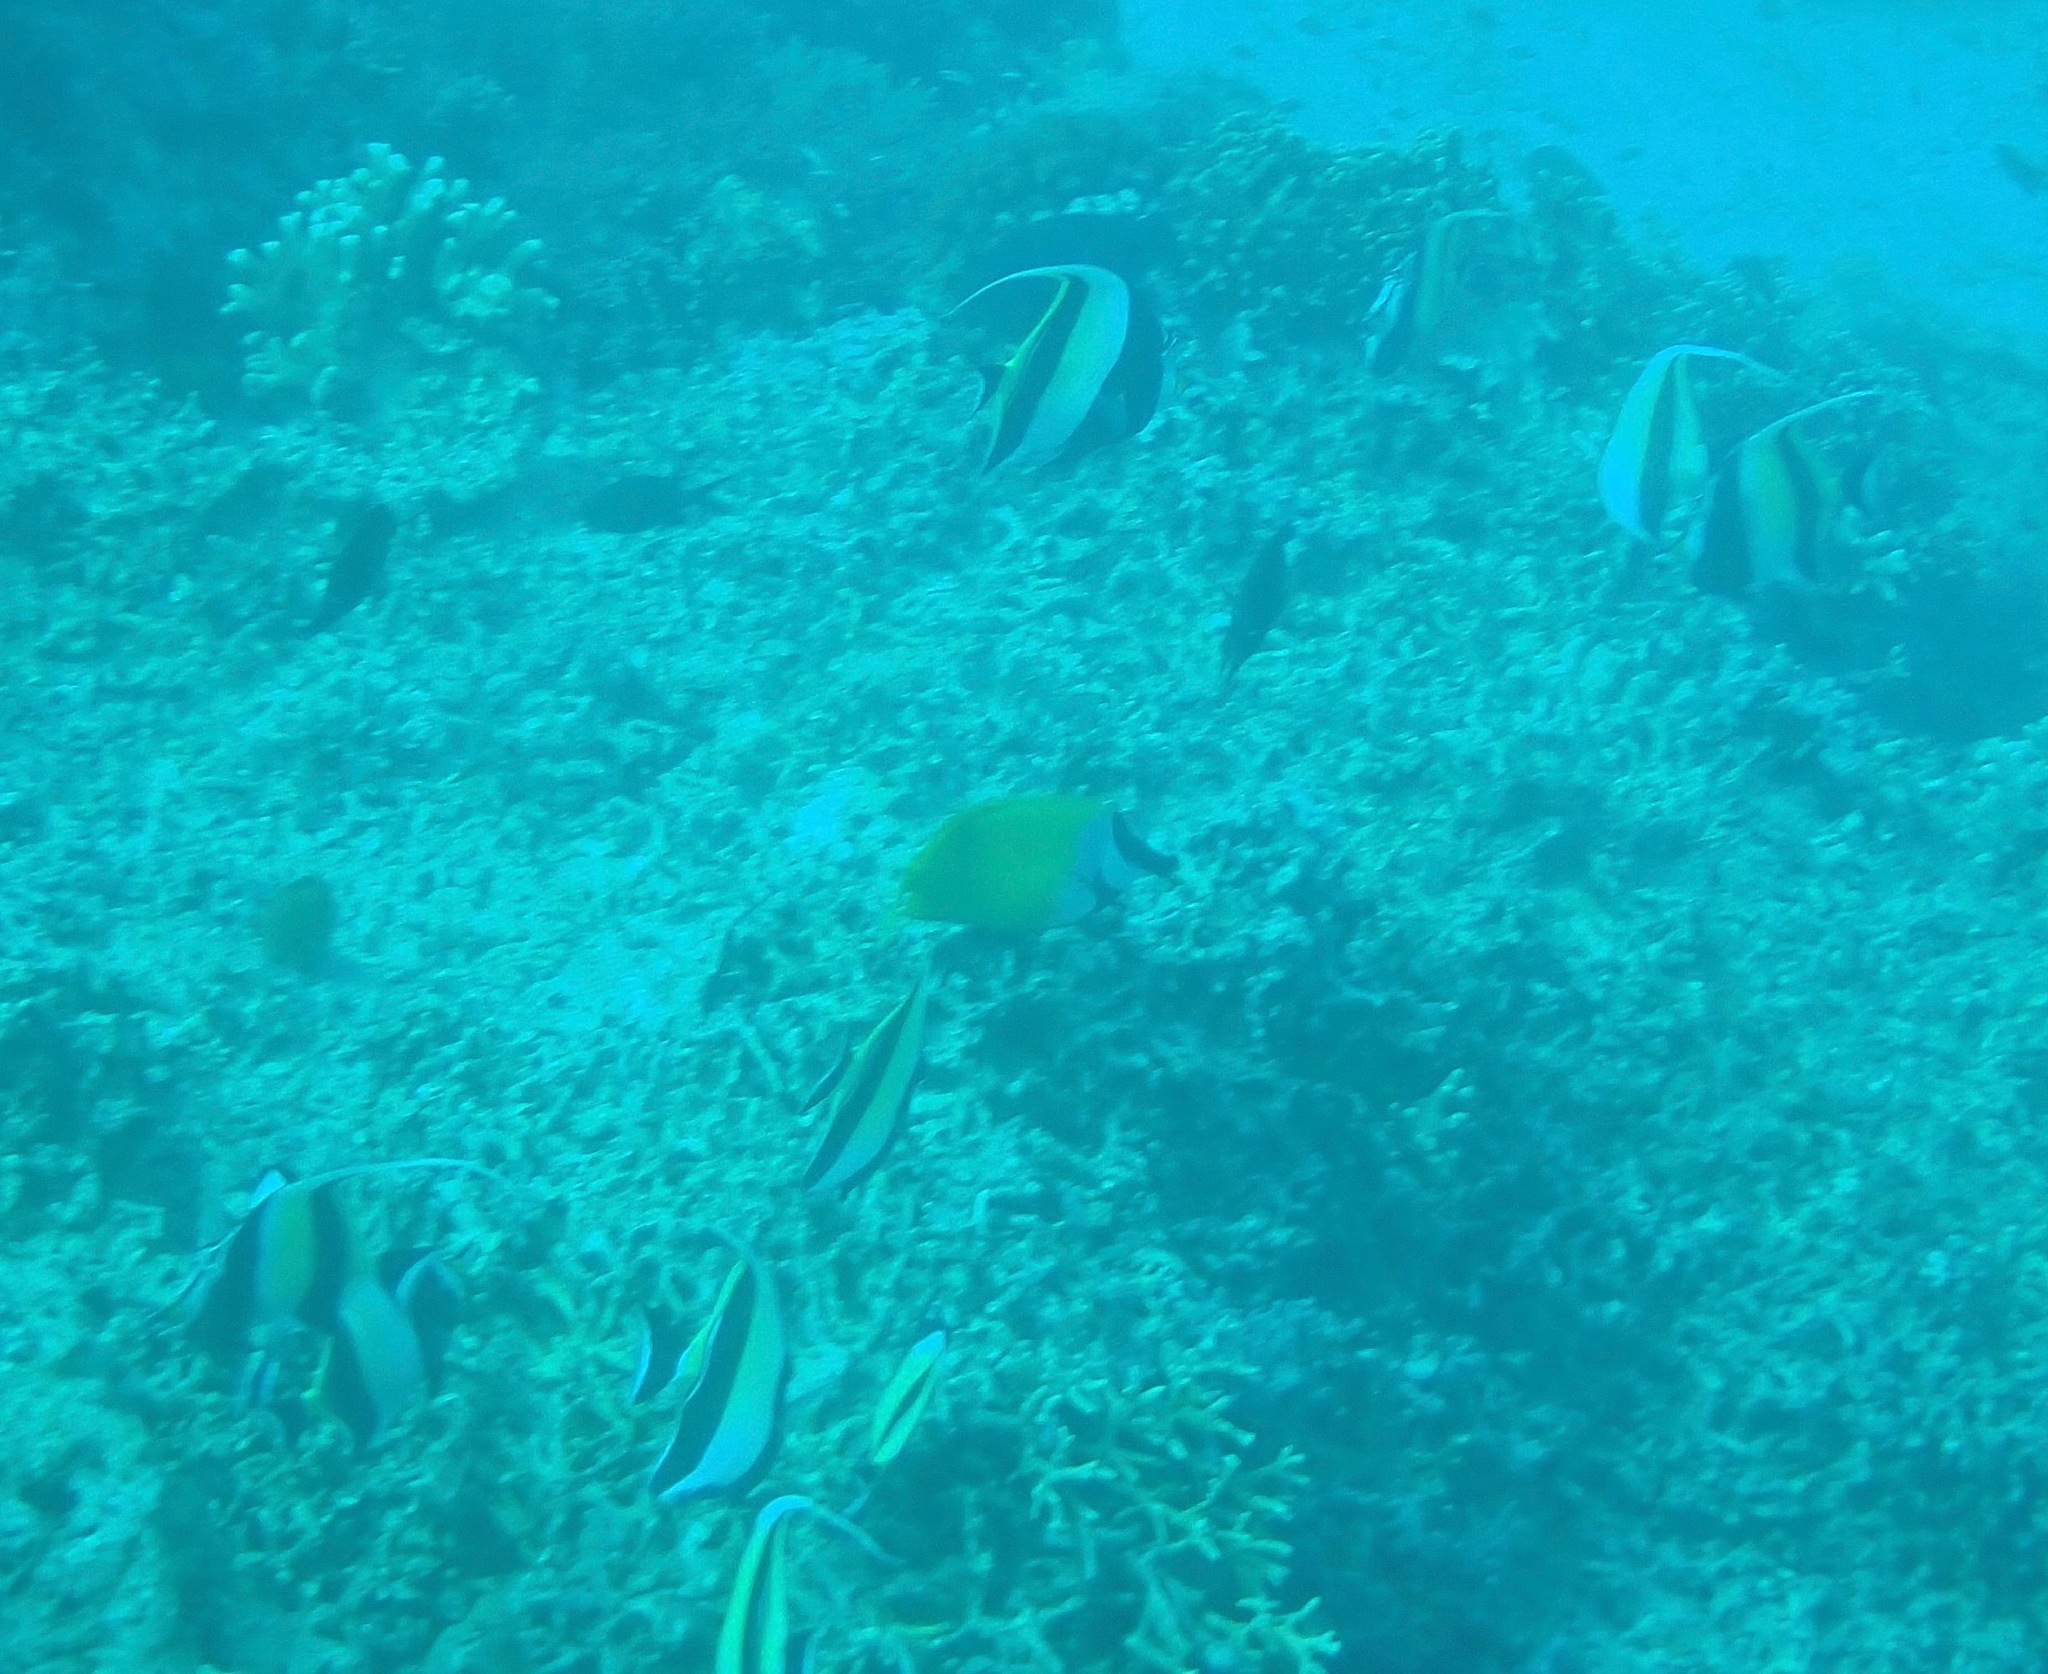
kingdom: Animalia
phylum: Chordata
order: Perciformes
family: Zanclidae
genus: Zanclus
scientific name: Zanclus cornutus
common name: Moorish idol
